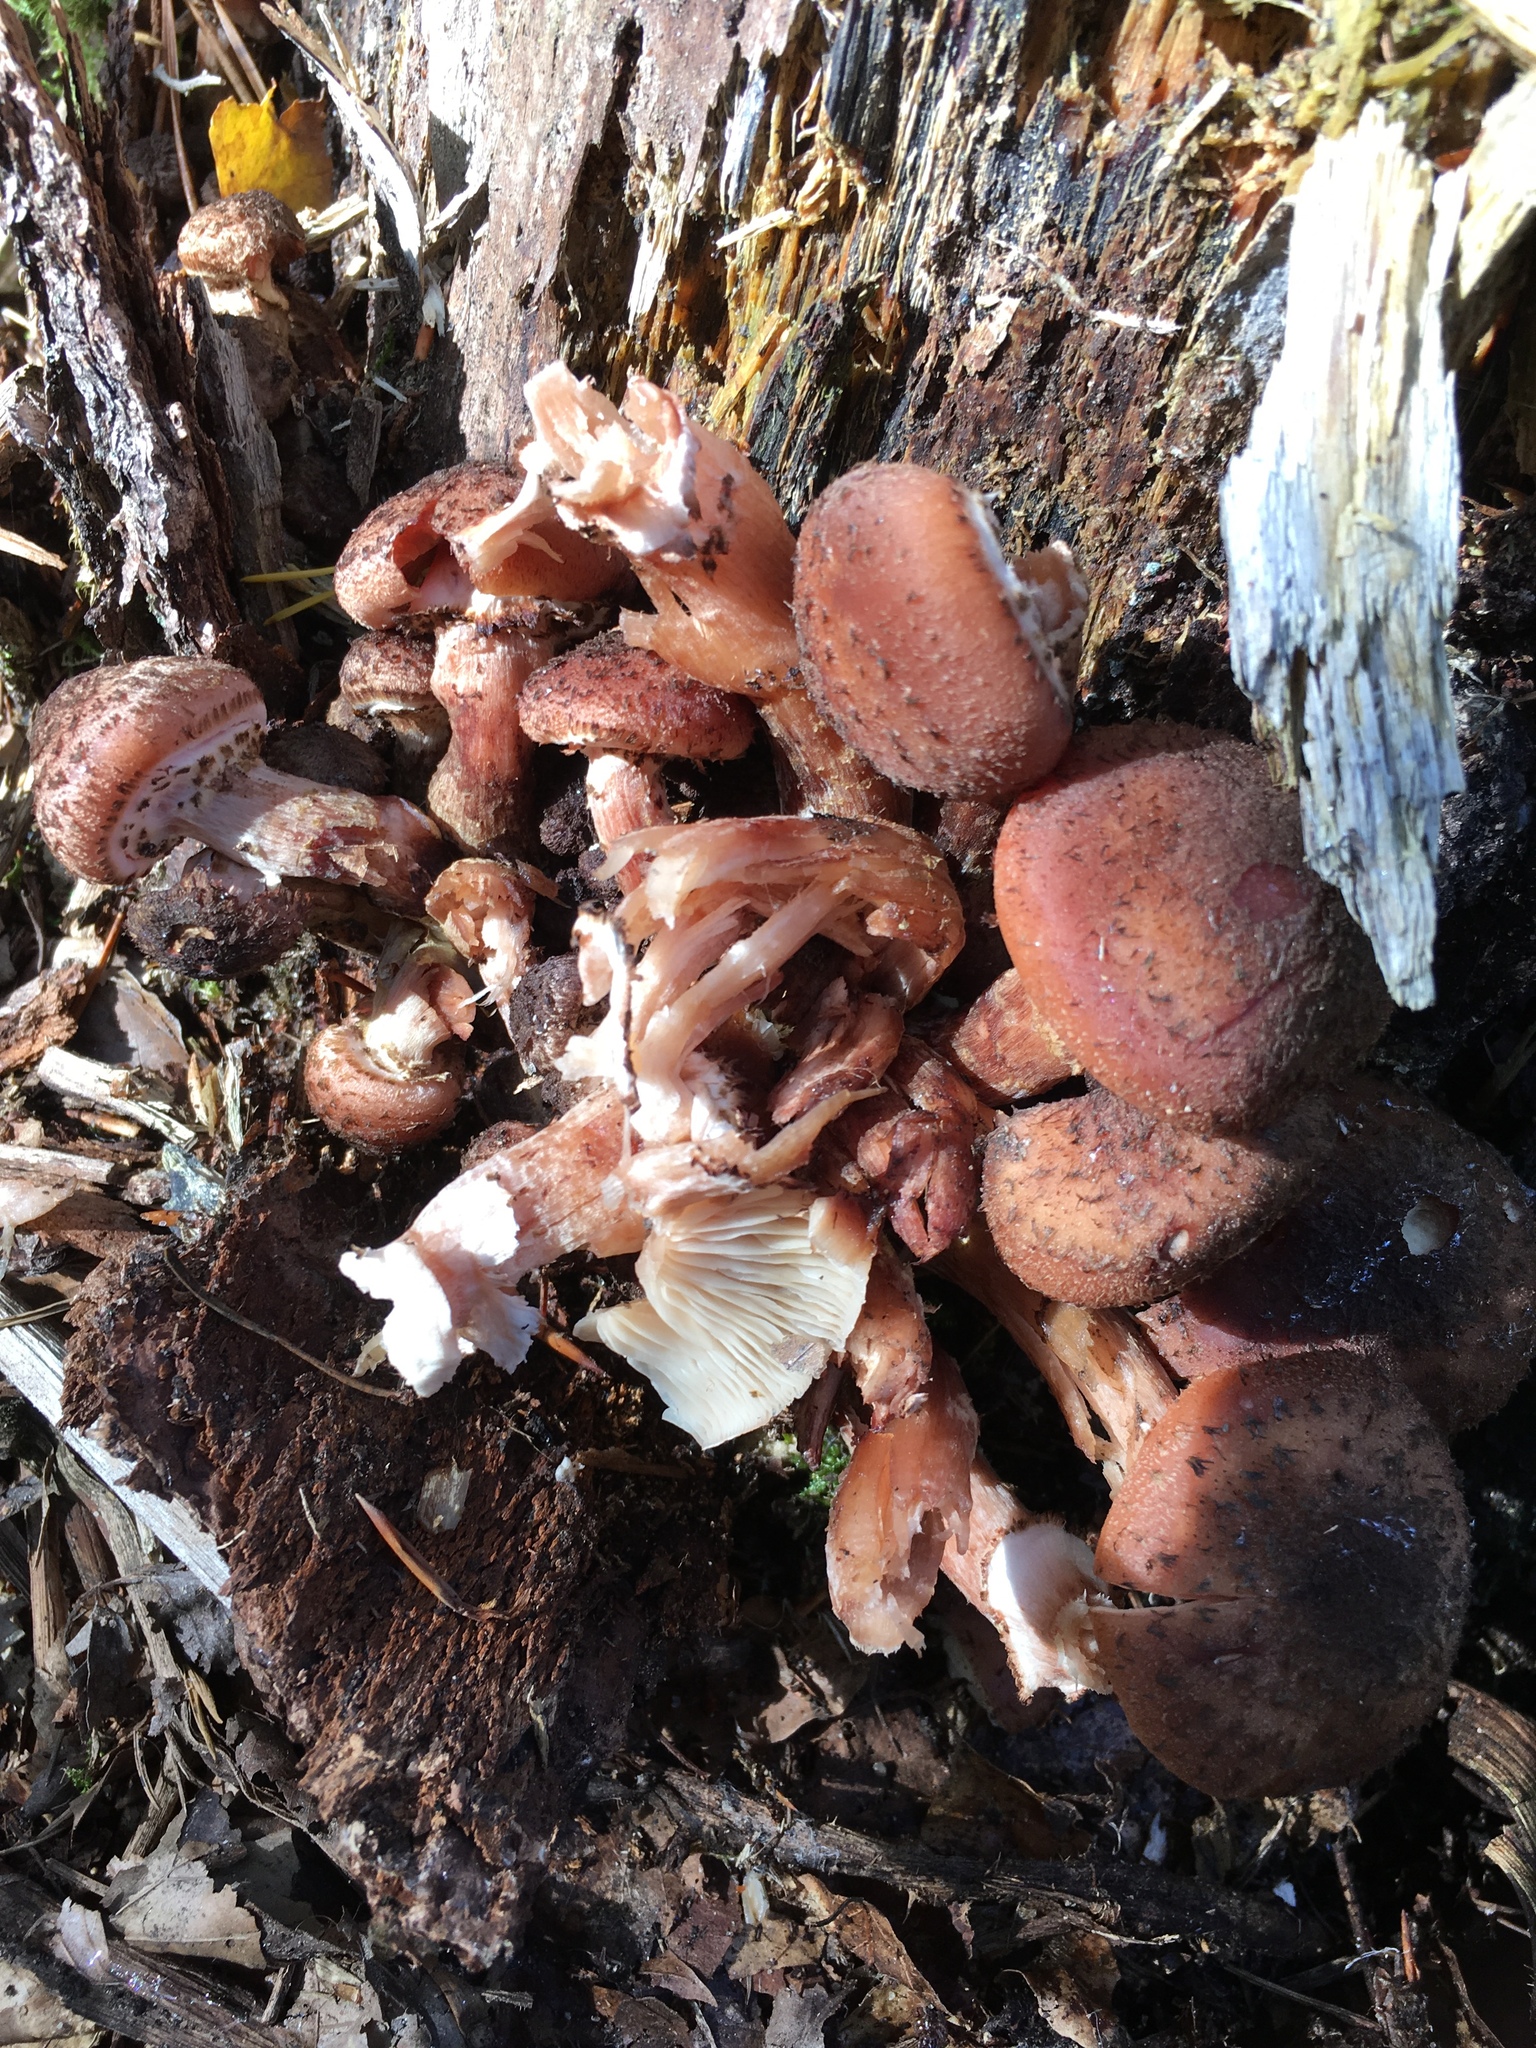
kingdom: Fungi
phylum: Basidiomycota
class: Agaricomycetes
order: Agaricales
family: Physalacriaceae
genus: Armillaria
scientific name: Armillaria ostoyae
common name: Dark honey fungus
